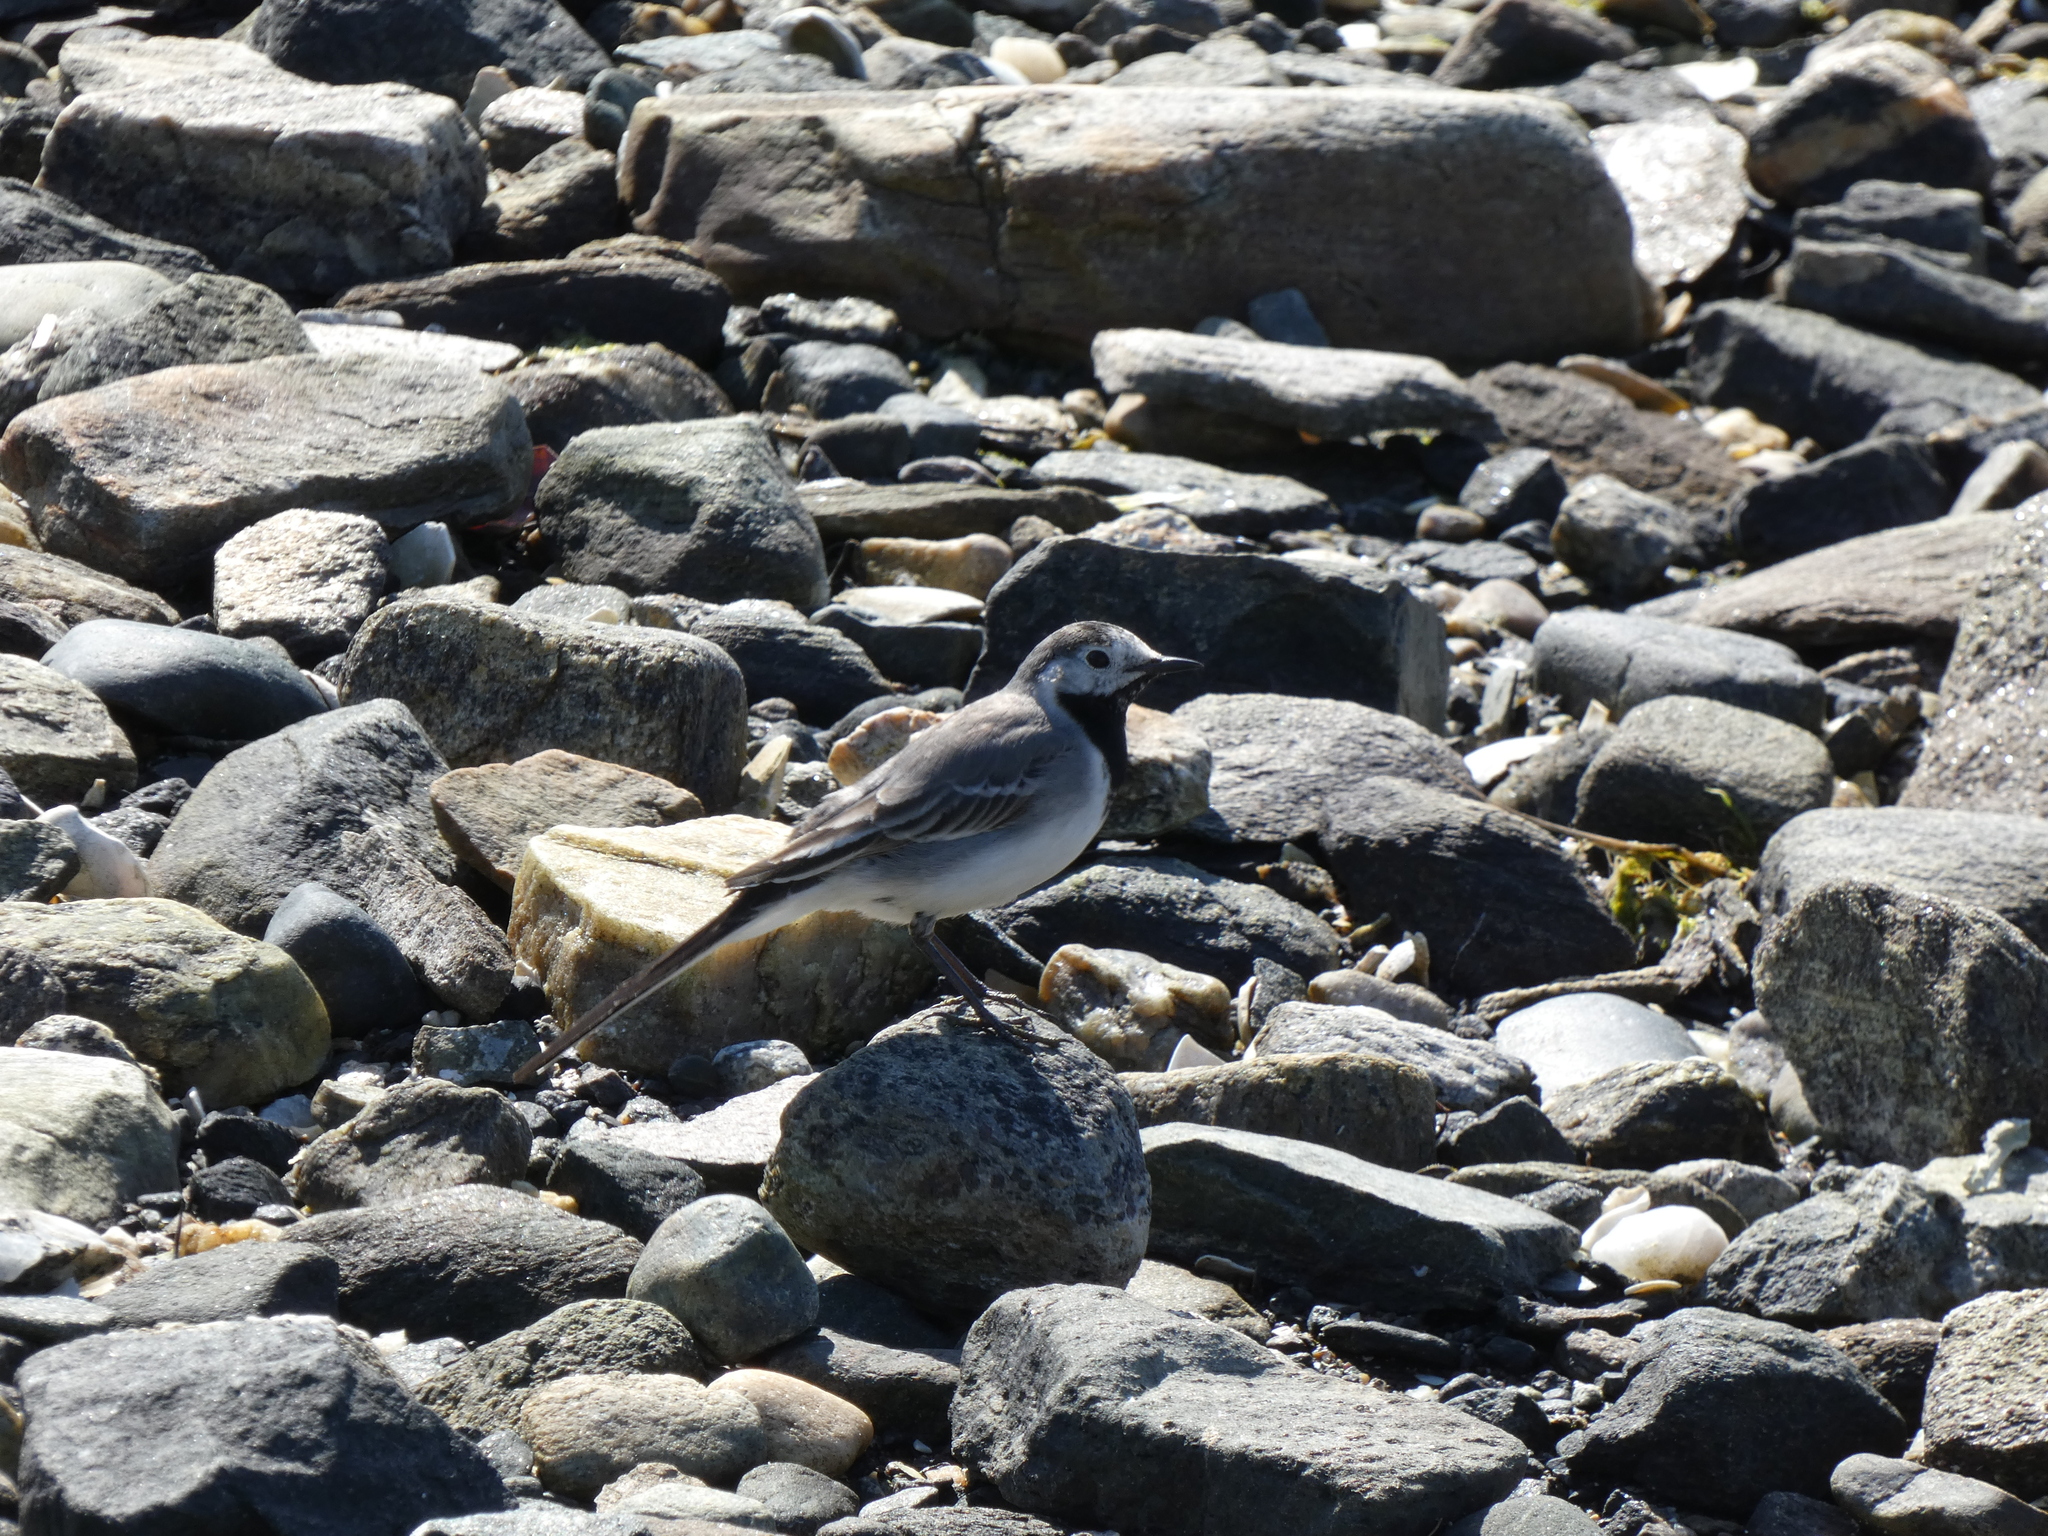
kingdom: Animalia
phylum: Chordata
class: Aves
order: Passeriformes
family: Motacillidae
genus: Motacilla
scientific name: Motacilla alba
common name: White wagtail
